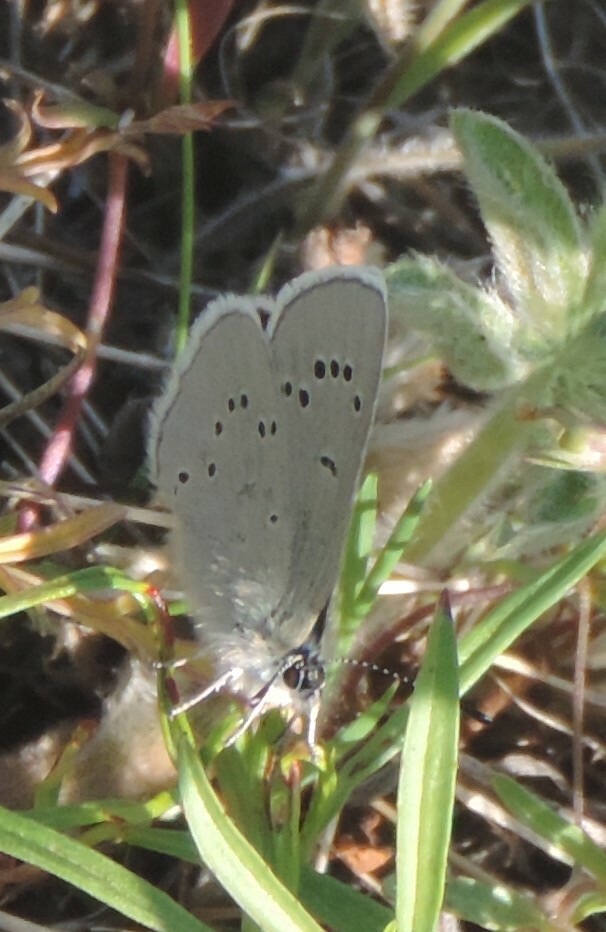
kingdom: Animalia
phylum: Arthropoda
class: Insecta
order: Lepidoptera
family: Lycaenidae
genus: Glaucopsyche
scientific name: Glaucopsyche lygdamus
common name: Silvery blue
